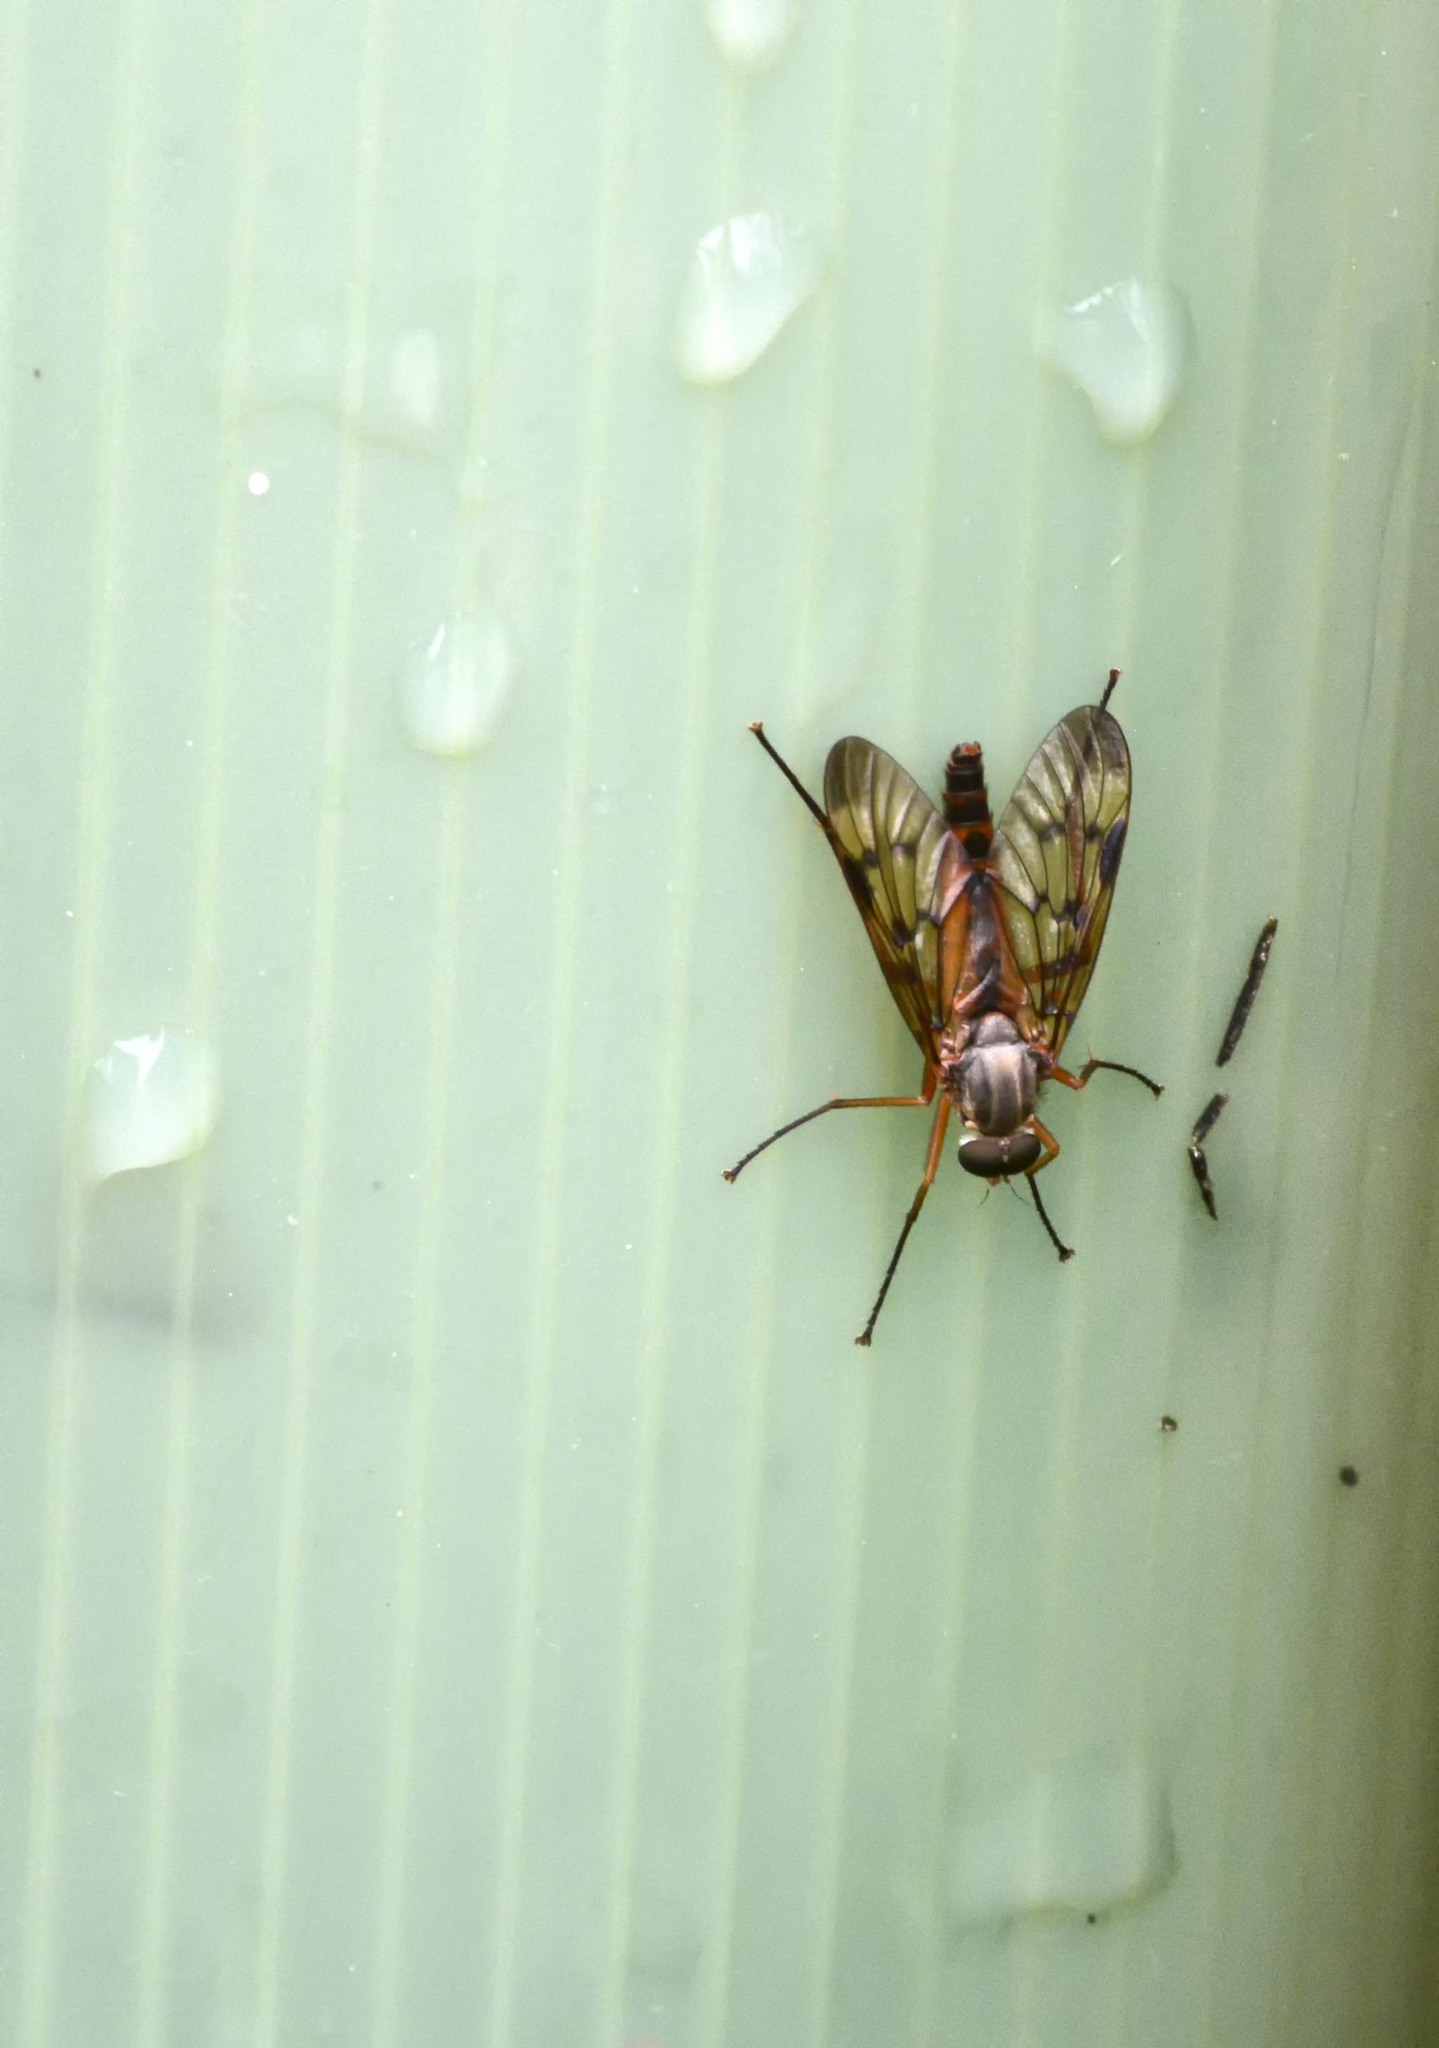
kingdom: Animalia
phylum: Arthropoda
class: Insecta
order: Diptera
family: Rhagionidae
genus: Rhagio
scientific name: Rhagio scolopacea
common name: Downlooker snipefly
